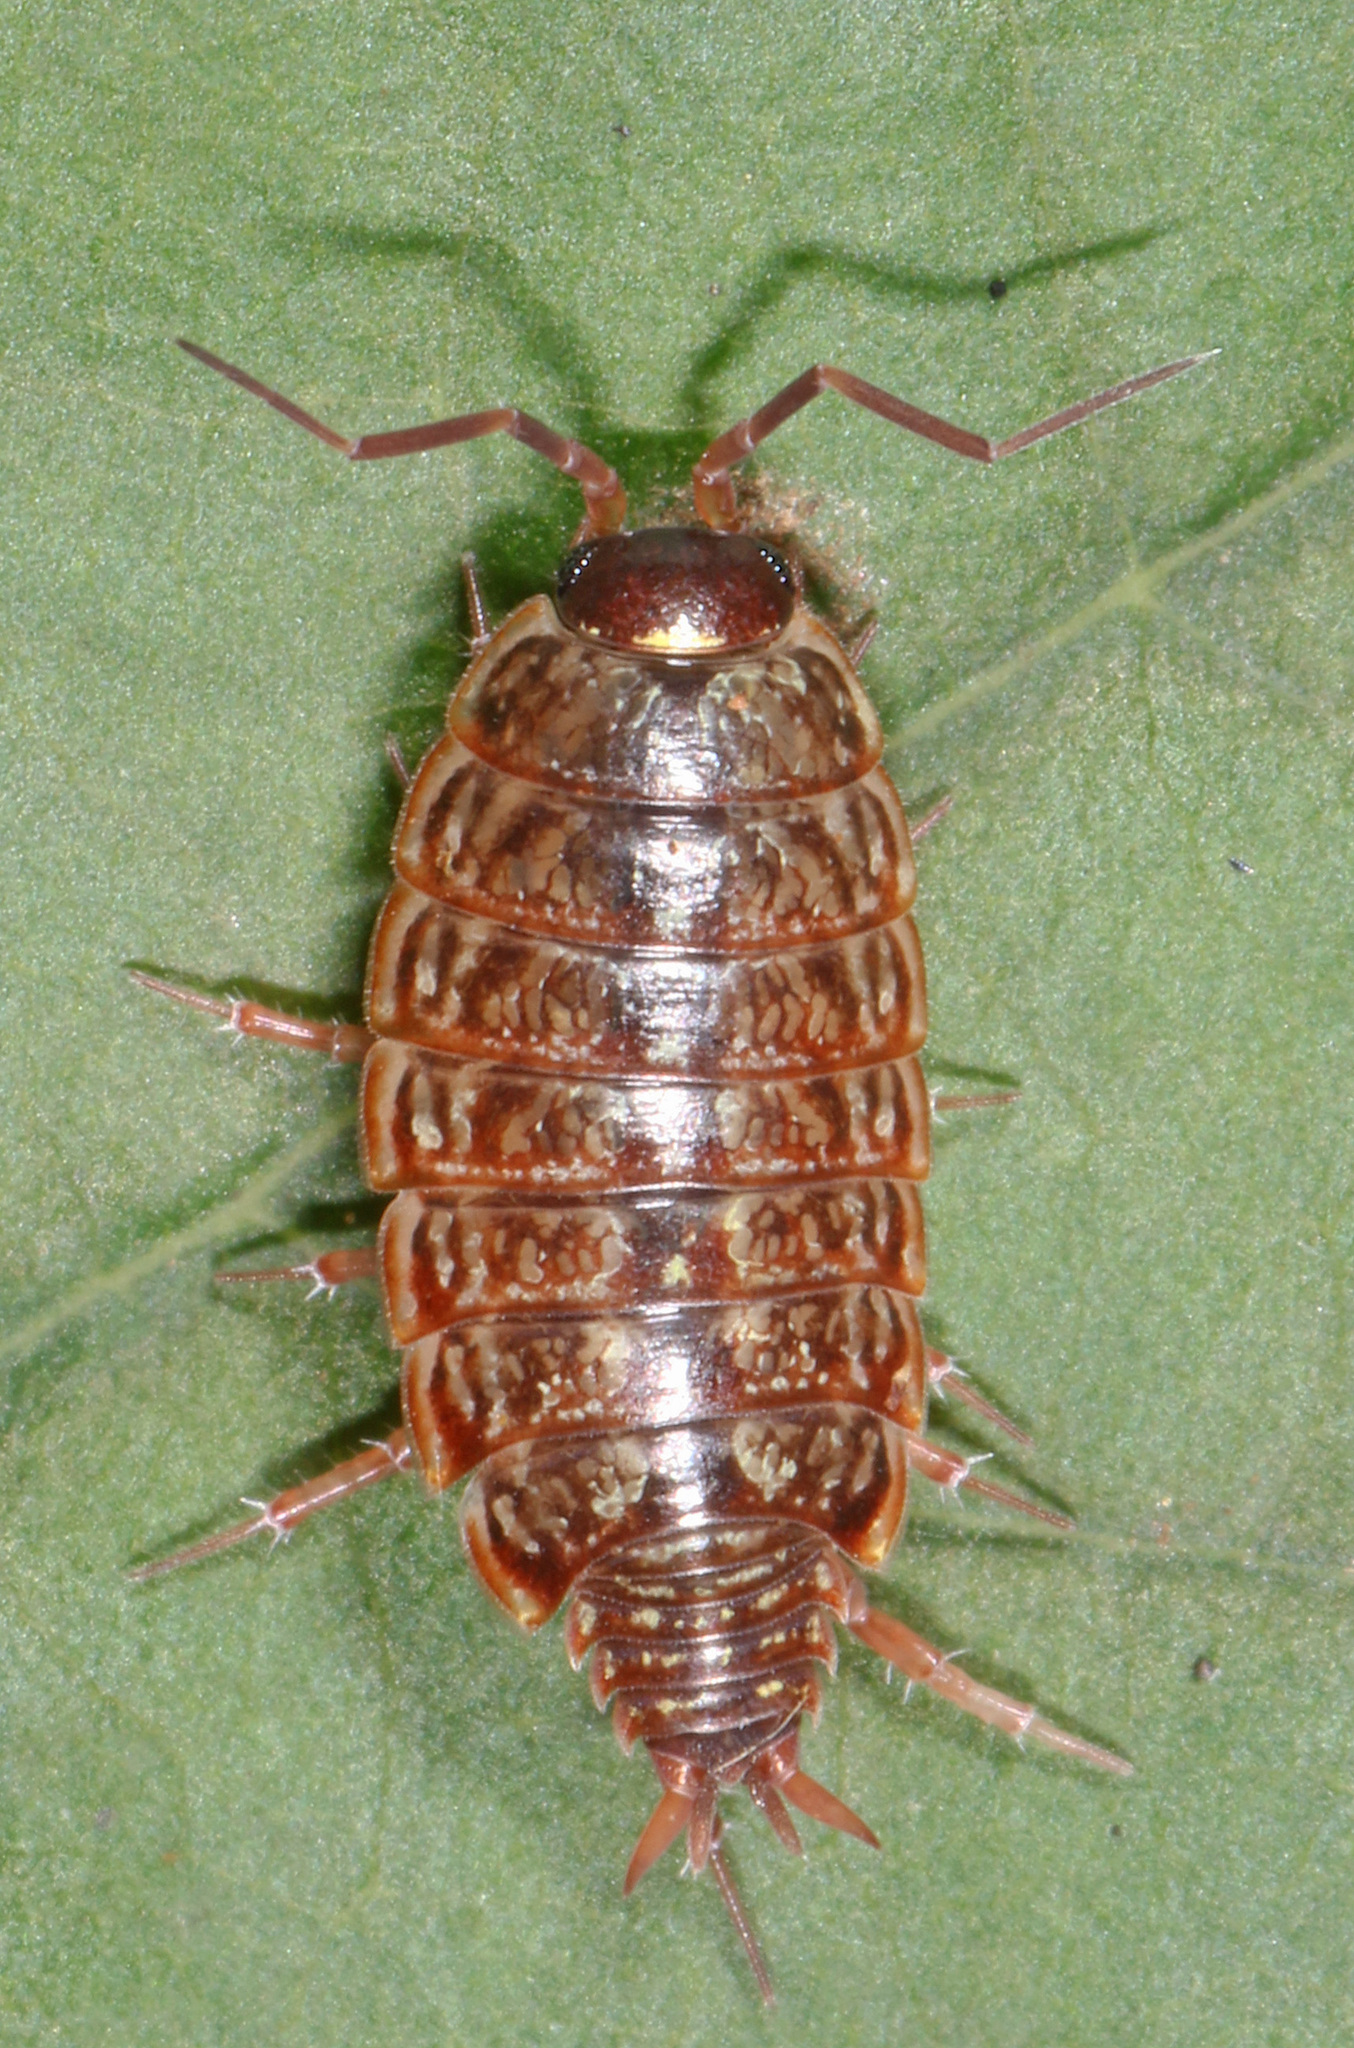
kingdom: Animalia
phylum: Arthropoda
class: Malacostraca
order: Isopoda
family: Philosciidae
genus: Philoscia
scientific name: Philoscia muscorum
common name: Common striped woodlouse
